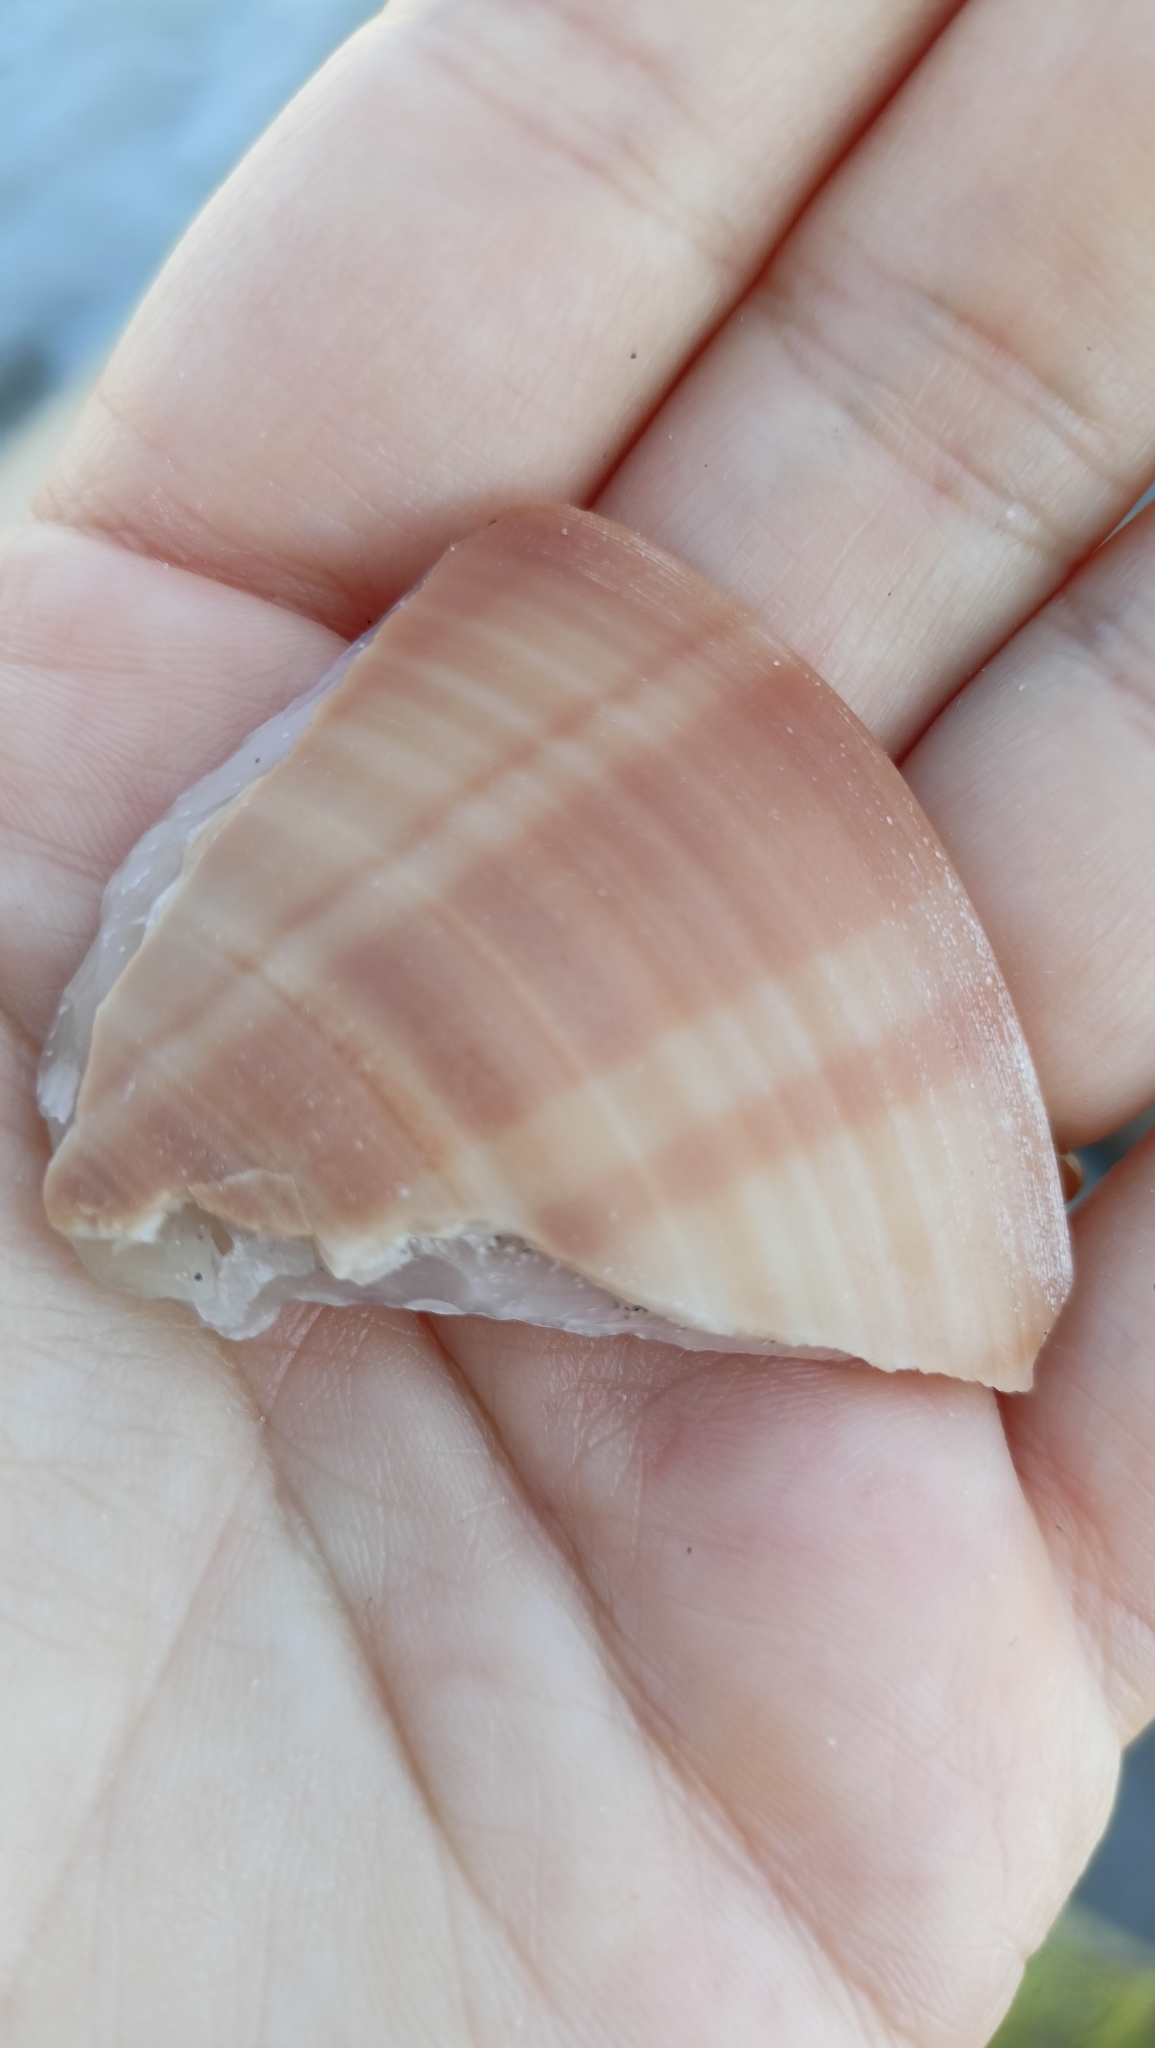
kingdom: Animalia
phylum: Mollusca
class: Bivalvia
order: Venerida
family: Veneridae
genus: Callista
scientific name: Callista chione
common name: Brown venus
